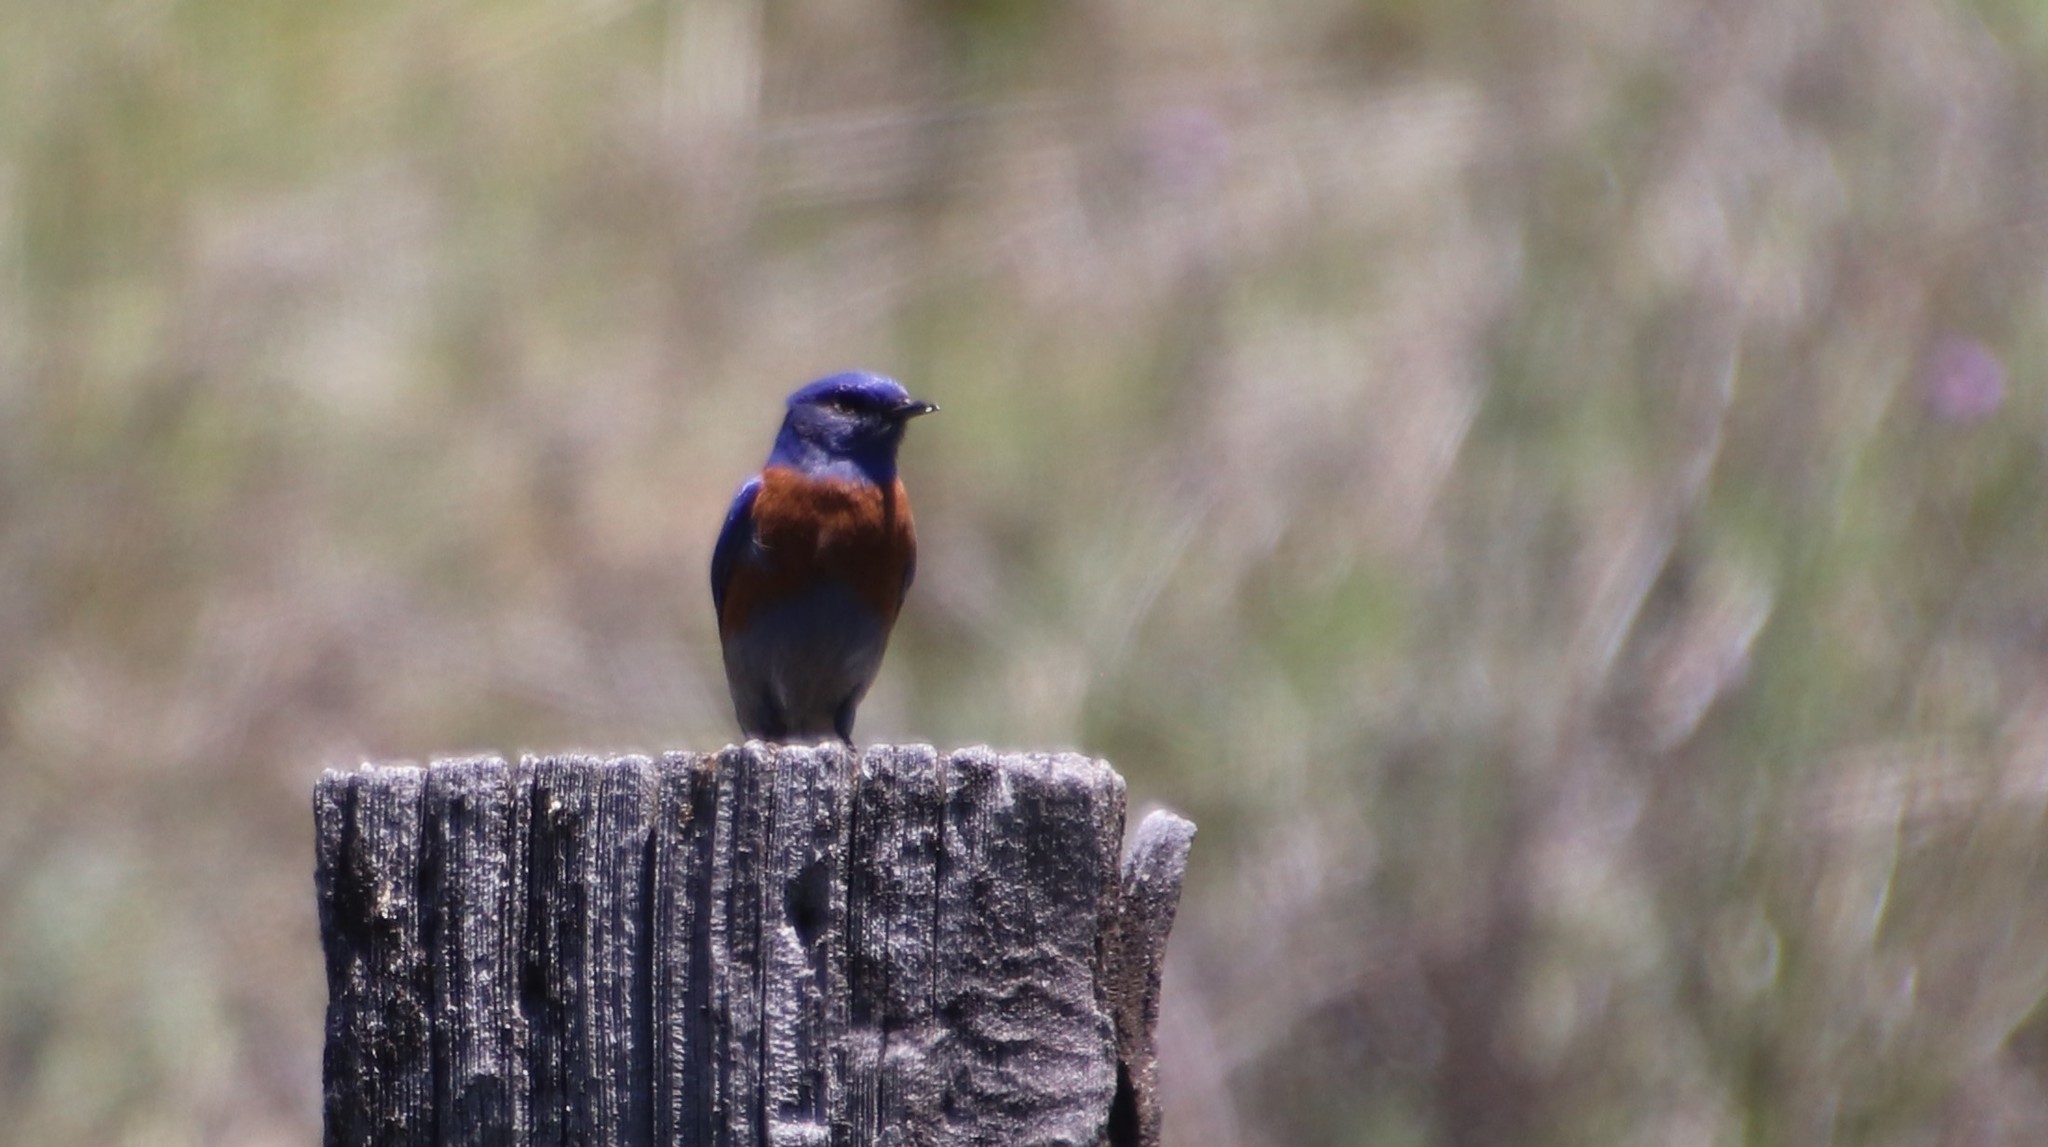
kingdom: Animalia
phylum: Chordata
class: Aves
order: Passeriformes
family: Turdidae
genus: Sialia
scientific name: Sialia mexicana
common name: Western bluebird
